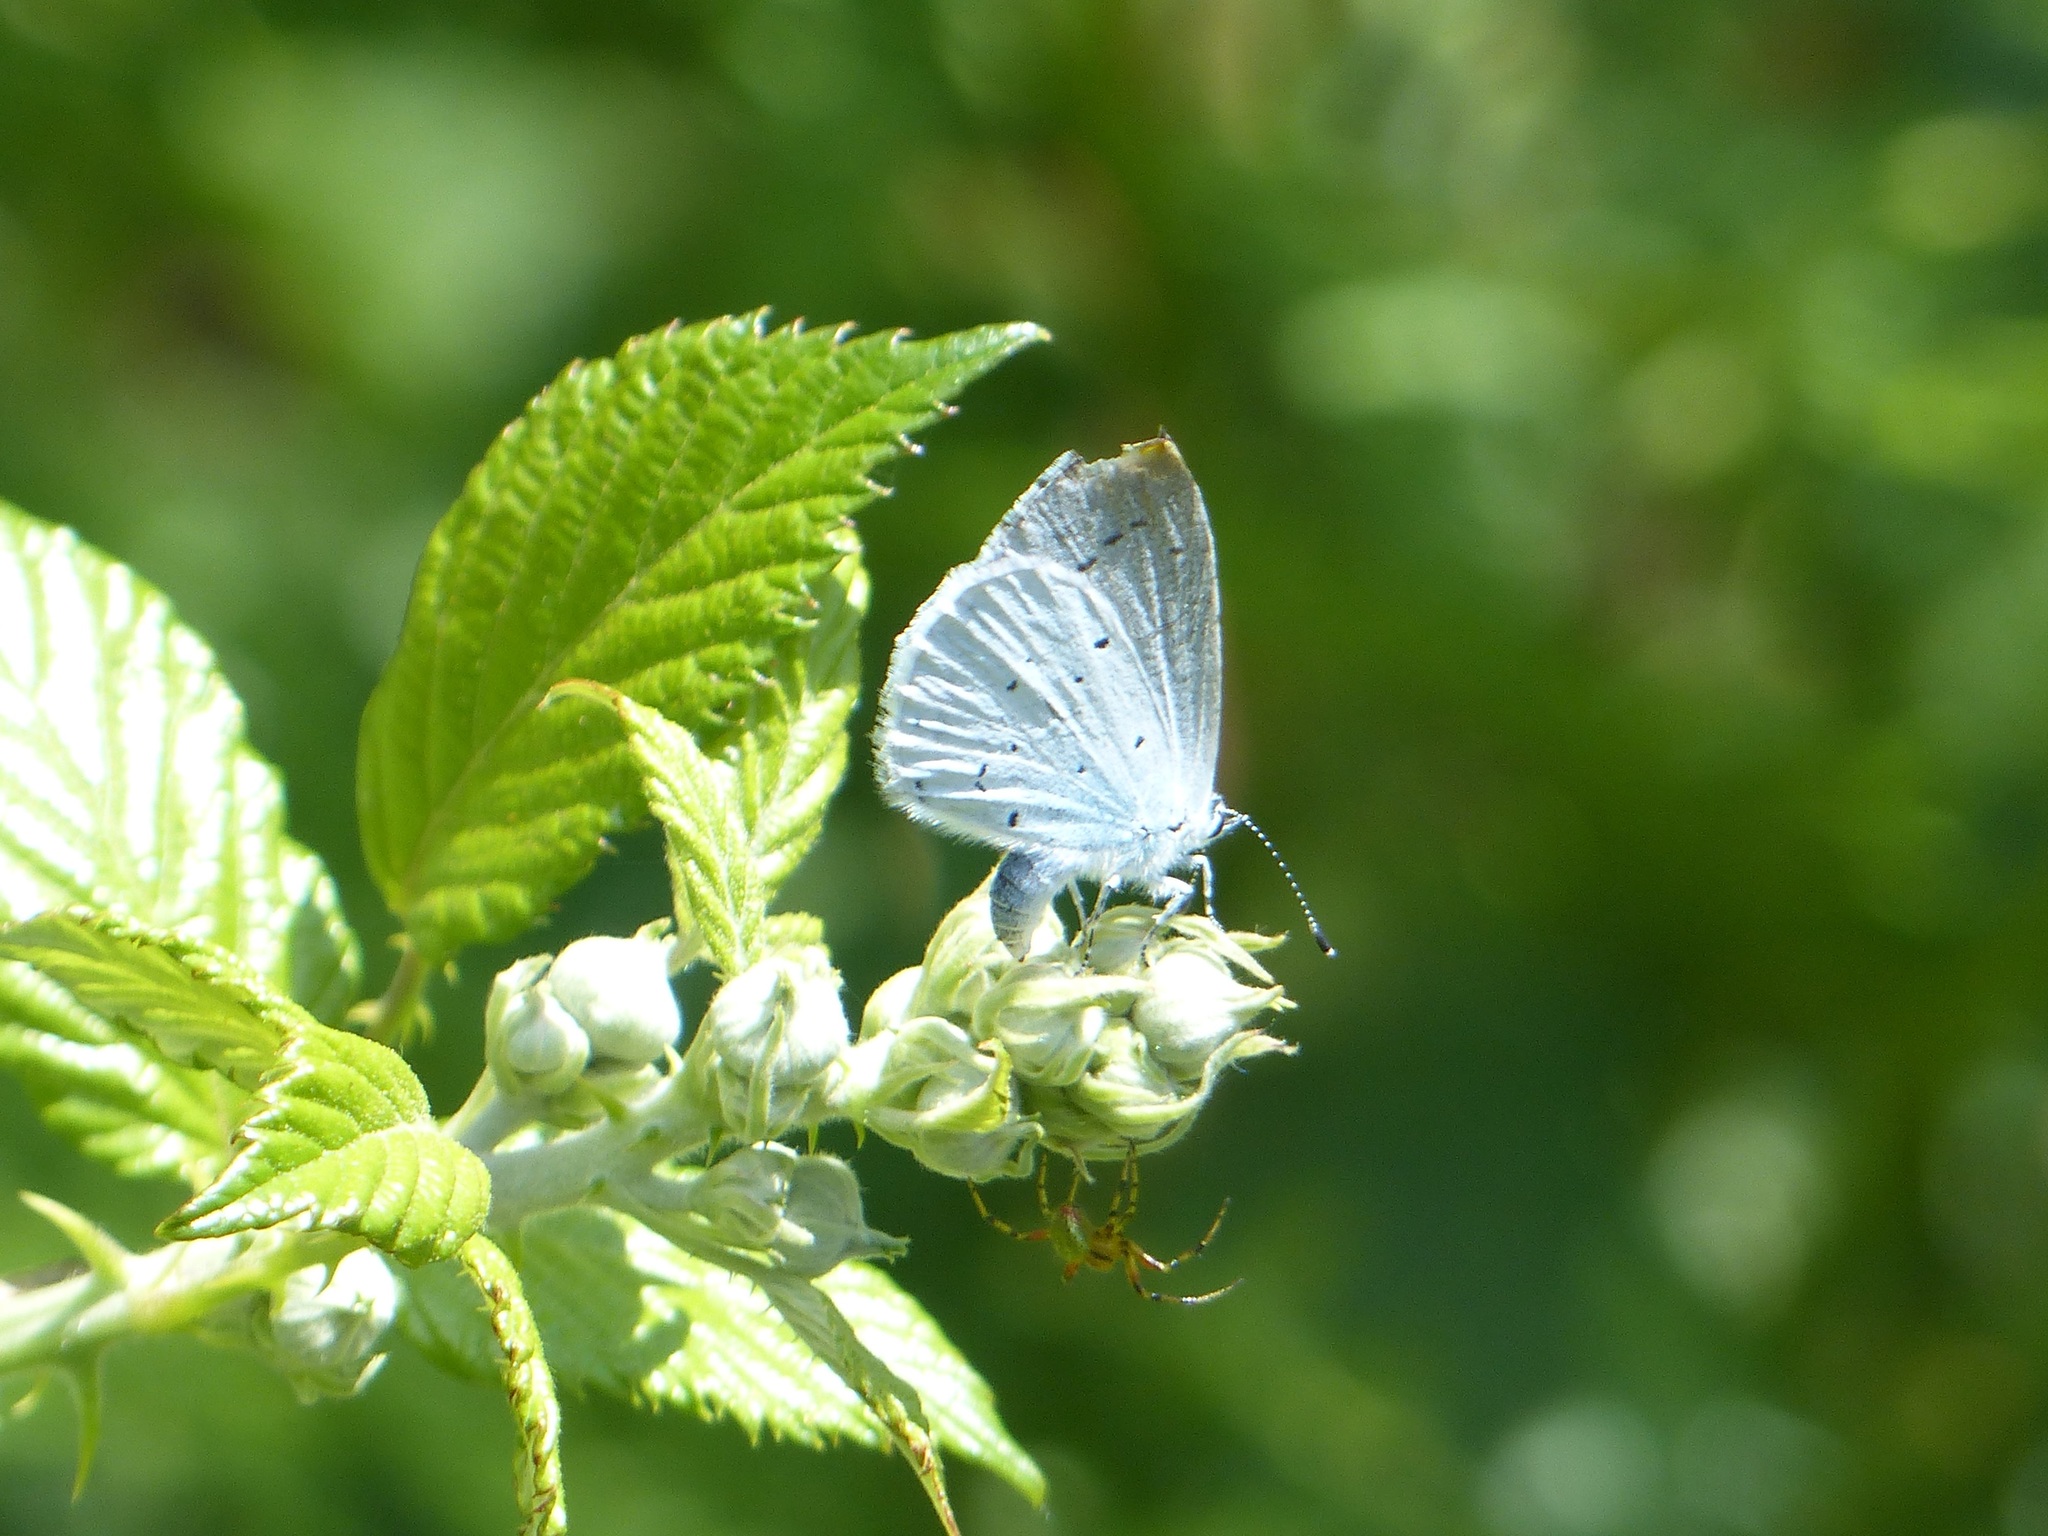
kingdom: Animalia
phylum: Arthropoda
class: Insecta
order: Lepidoptera
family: Lycaenidae
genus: Celastrina
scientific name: Celastrina argiolus
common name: Holly blue
